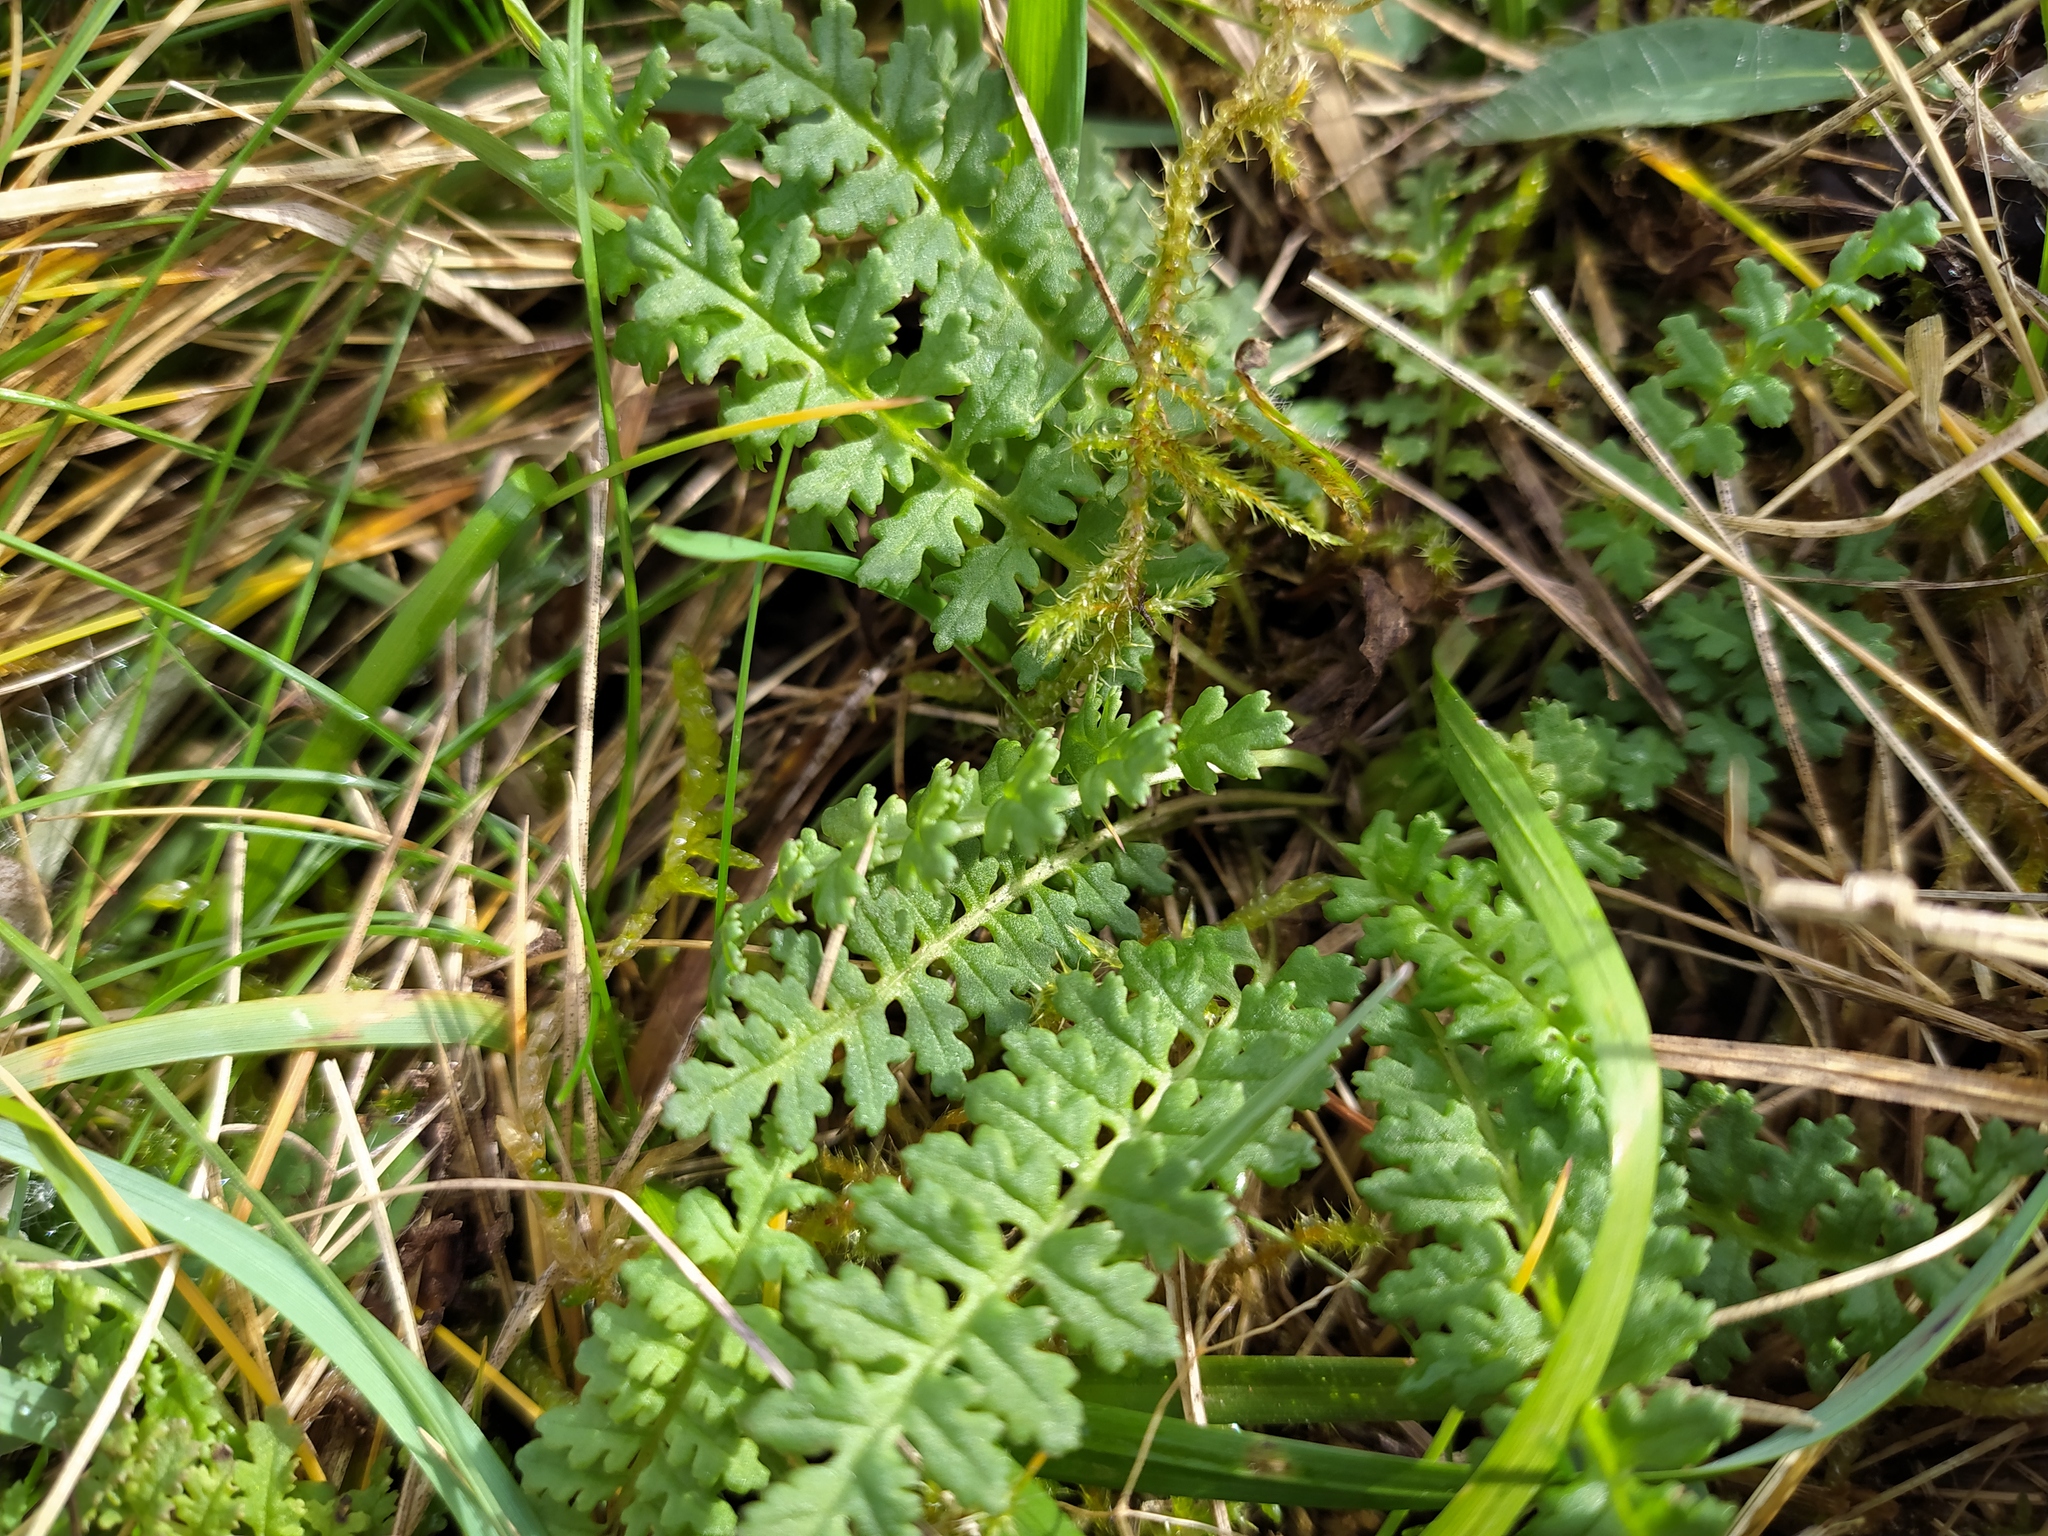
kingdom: Plantae
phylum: Tracheophyta
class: Magnoliopsida
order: Lamiales
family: Orobanchaceae
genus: Pedicularis
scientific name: Pedicularis sylvatica
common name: Lousewort
